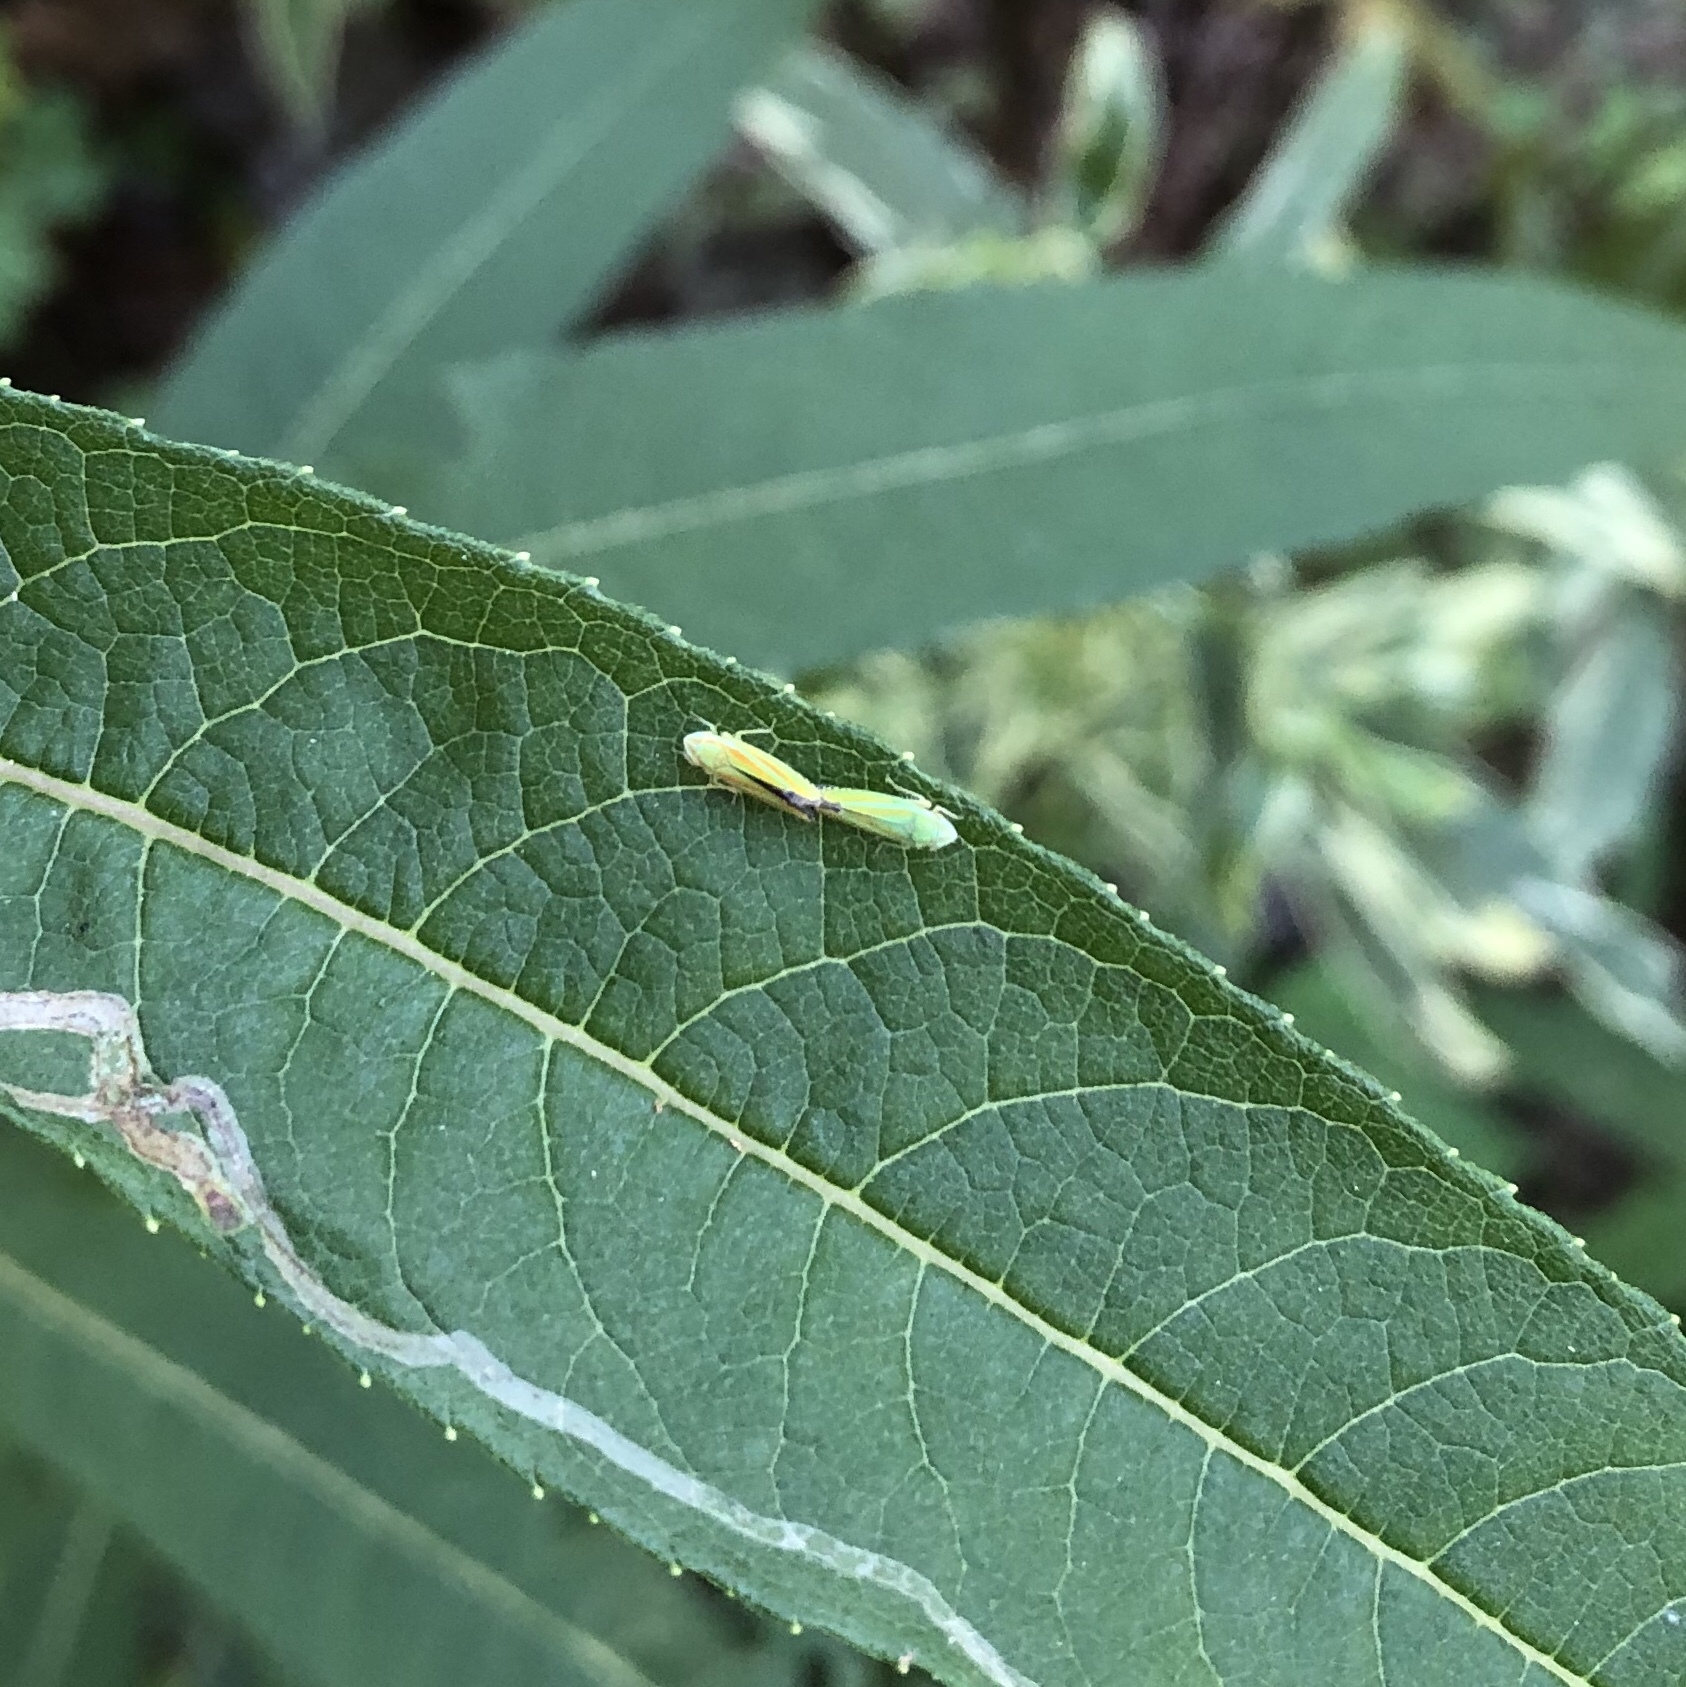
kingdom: Animalia
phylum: Arthropoda
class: Insecta
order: Hemiptera
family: Cicadellidae
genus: Graphocephala
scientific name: Graphocephala versuta
